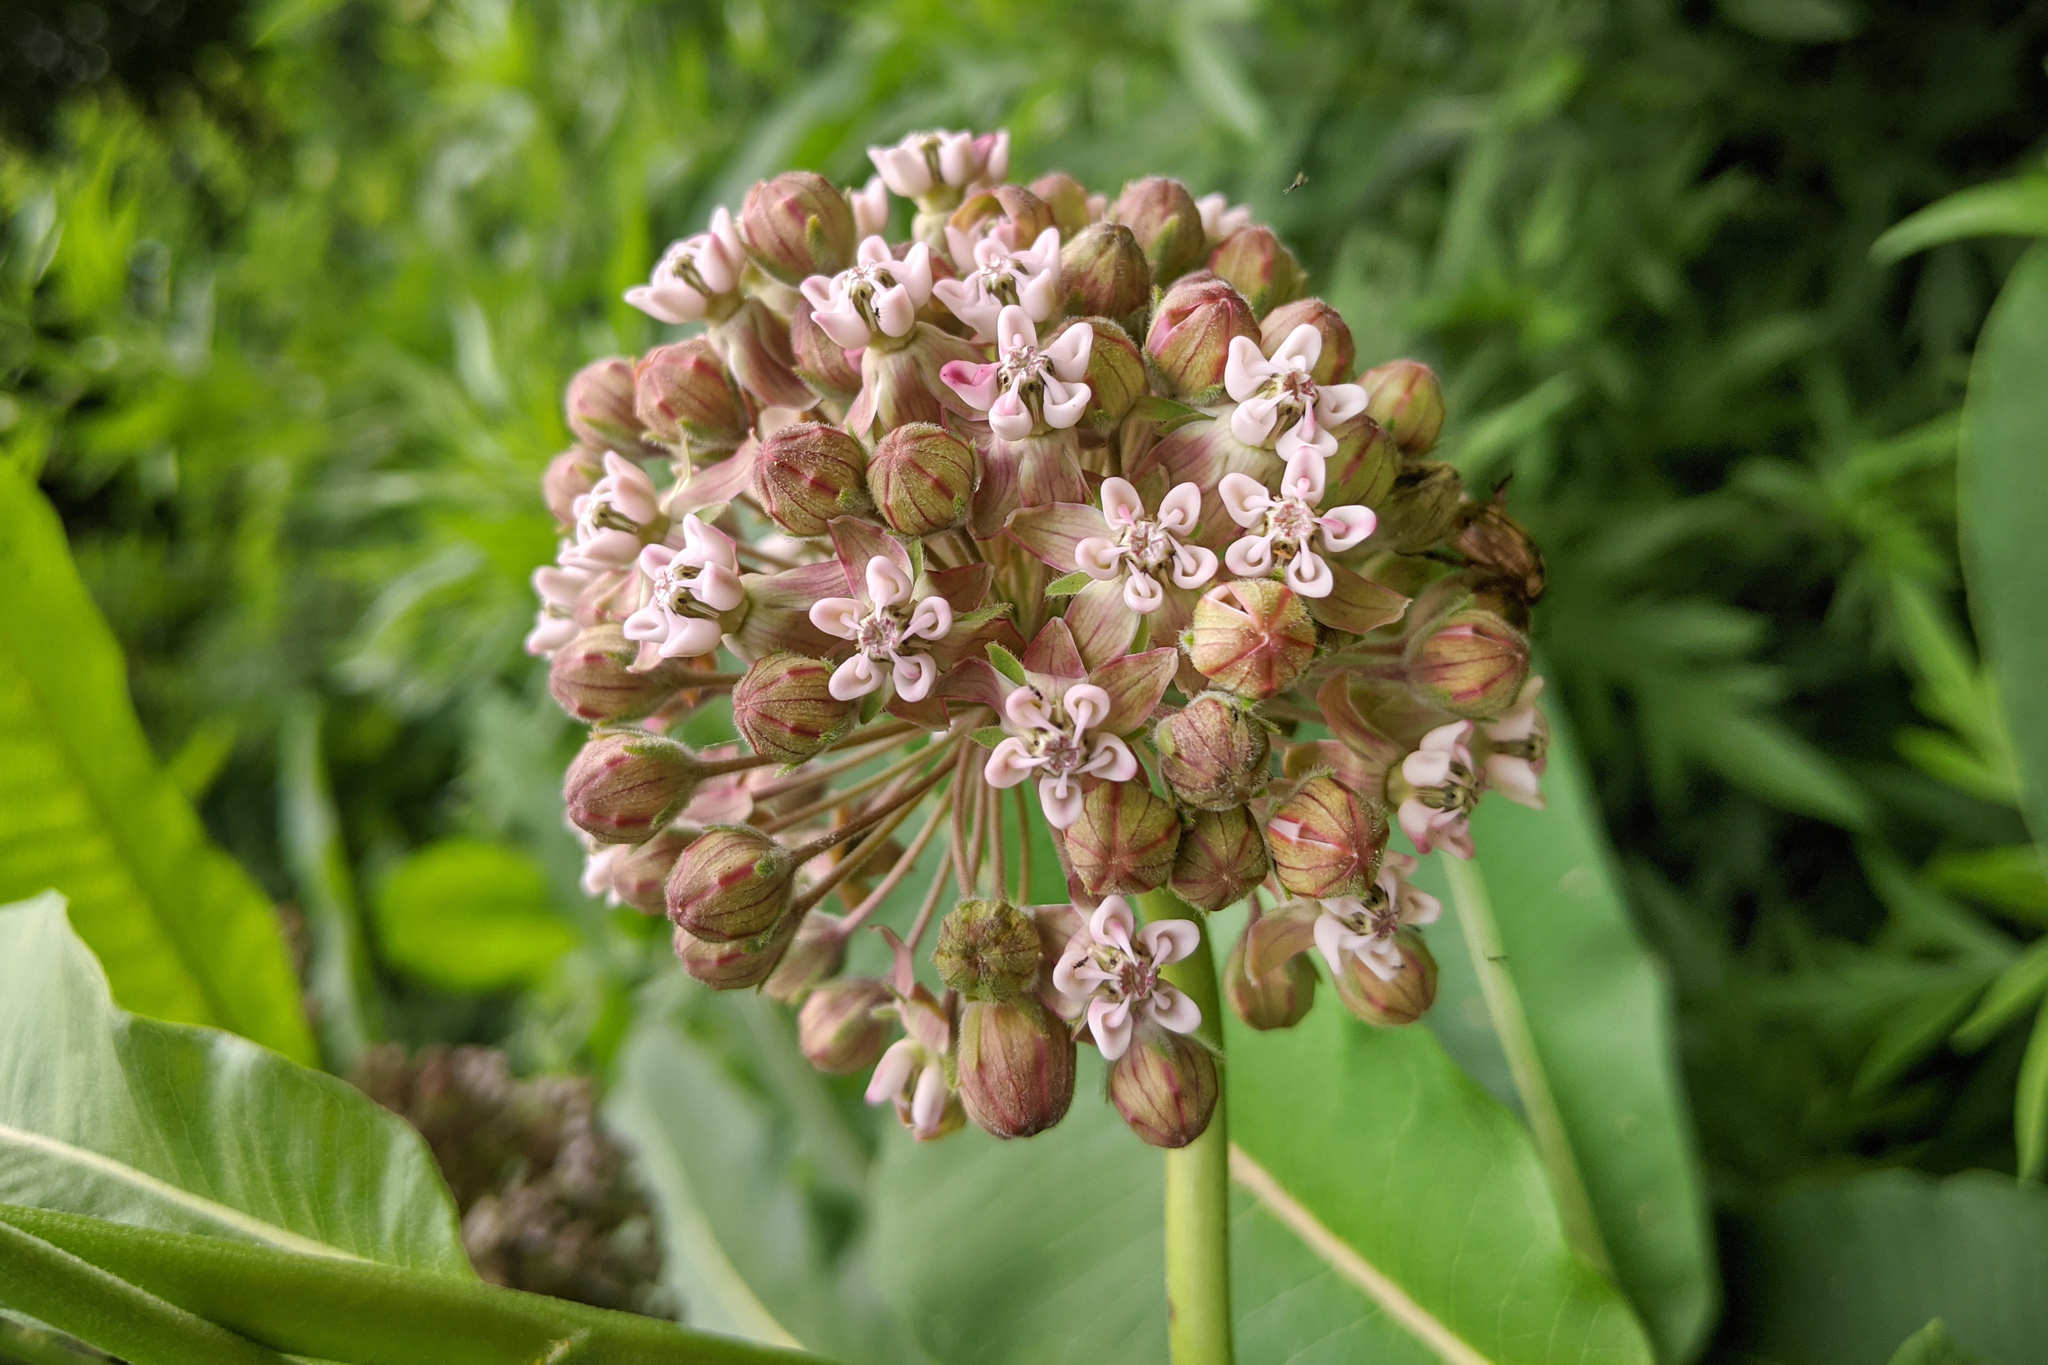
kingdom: Plantae
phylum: Tracheophyta
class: Magnoliopsida
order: Gentianales
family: Apocynaceae
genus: Asclepias
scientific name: Asclepias syriaca
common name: Common milkweed
